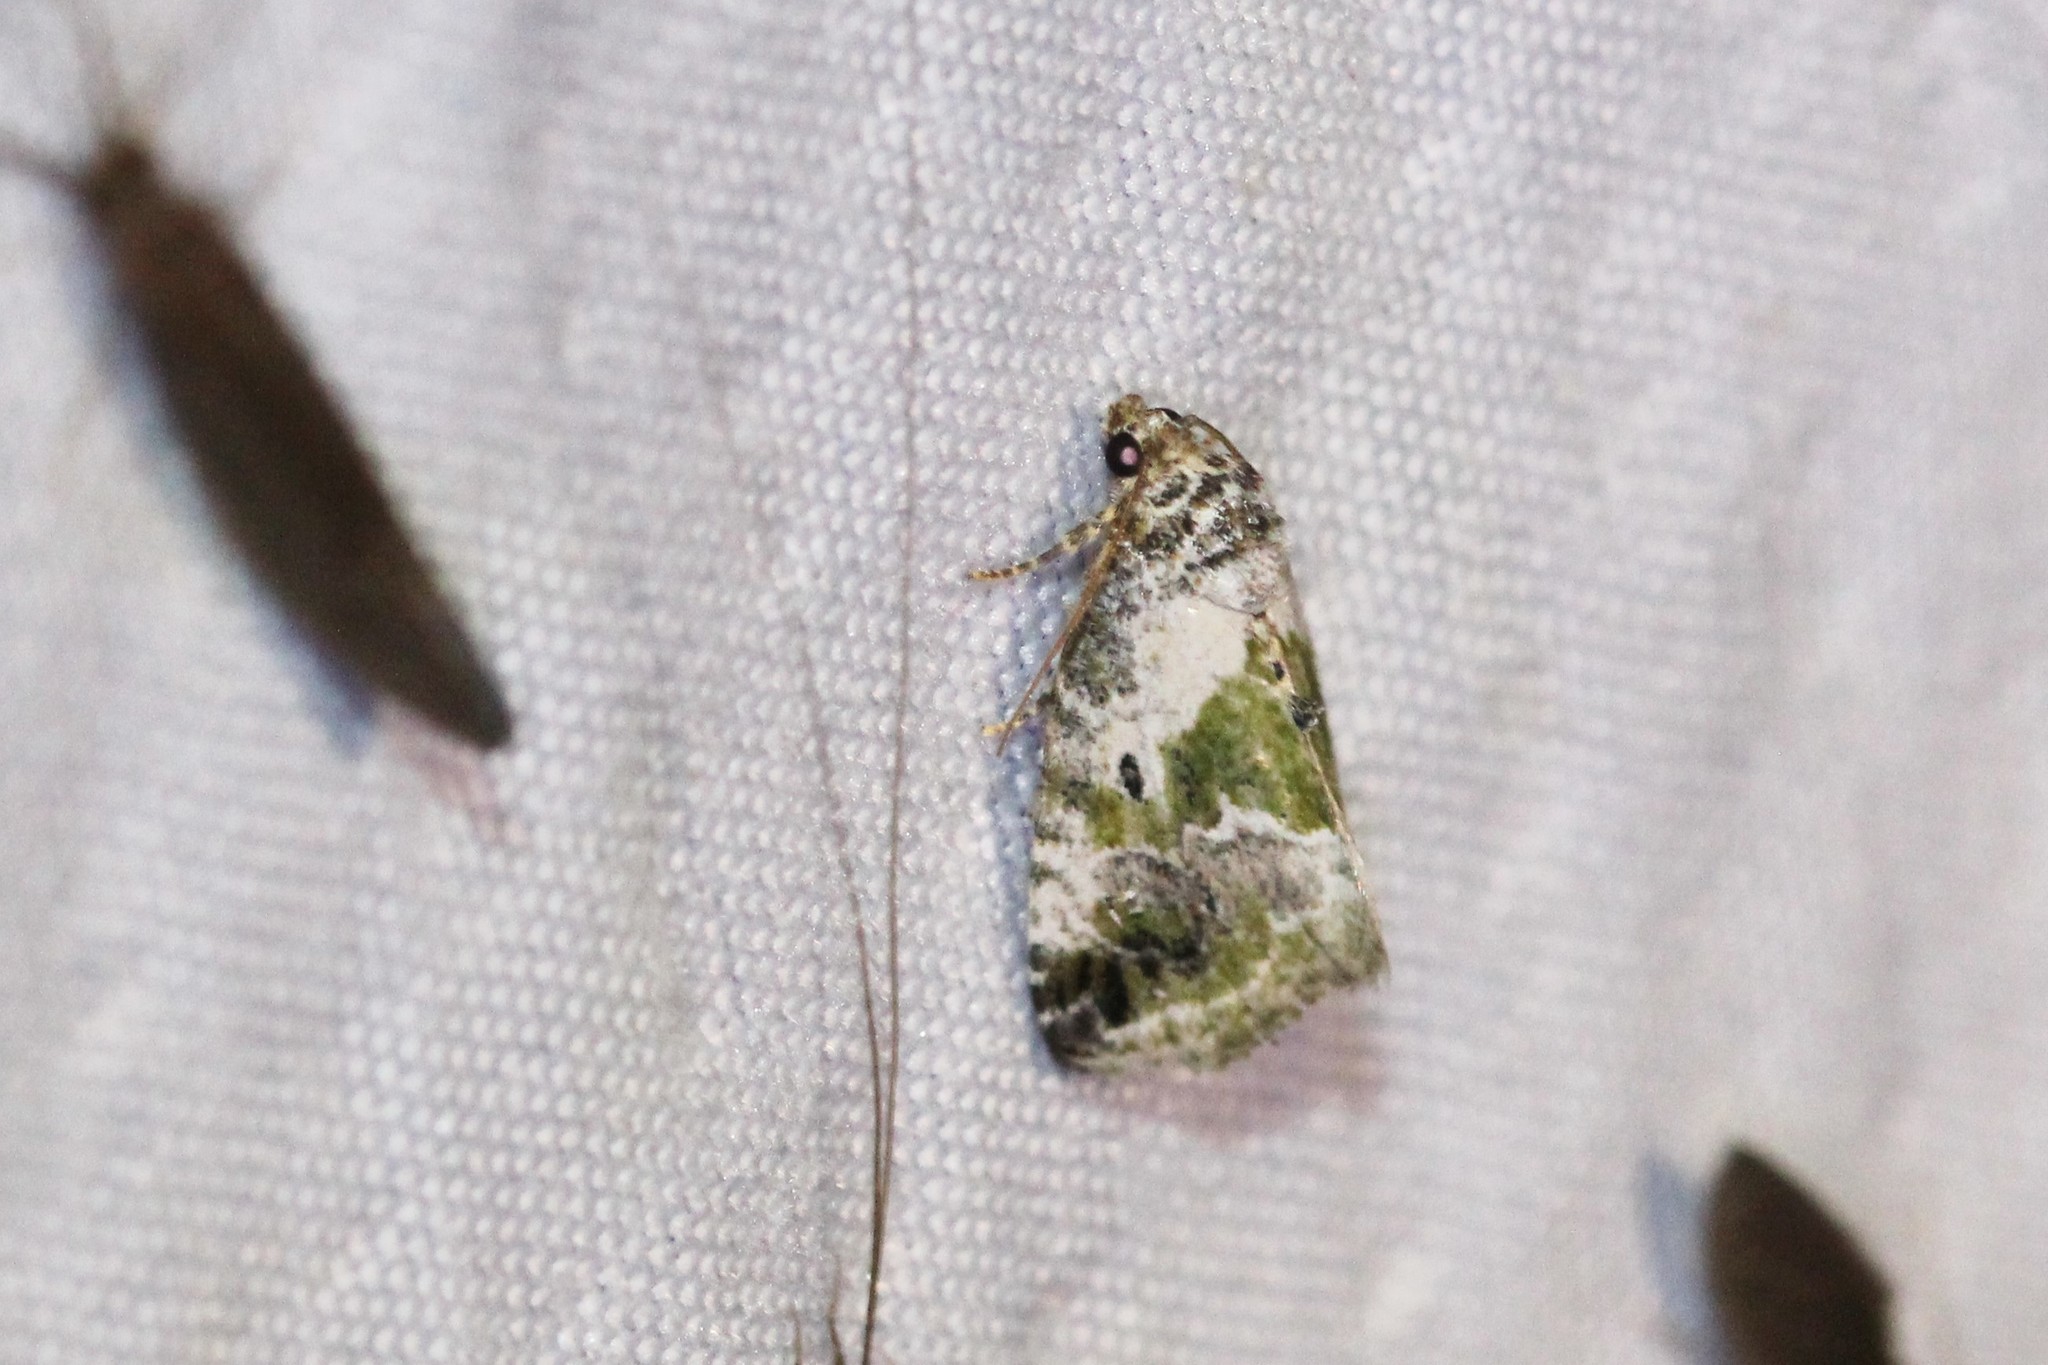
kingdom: Animalia
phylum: Arthropoda
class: Insecta
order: Lepidoptera
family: Noctuidae
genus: Maliattha
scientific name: Maliattha synochitis
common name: Black-dotted glyph
